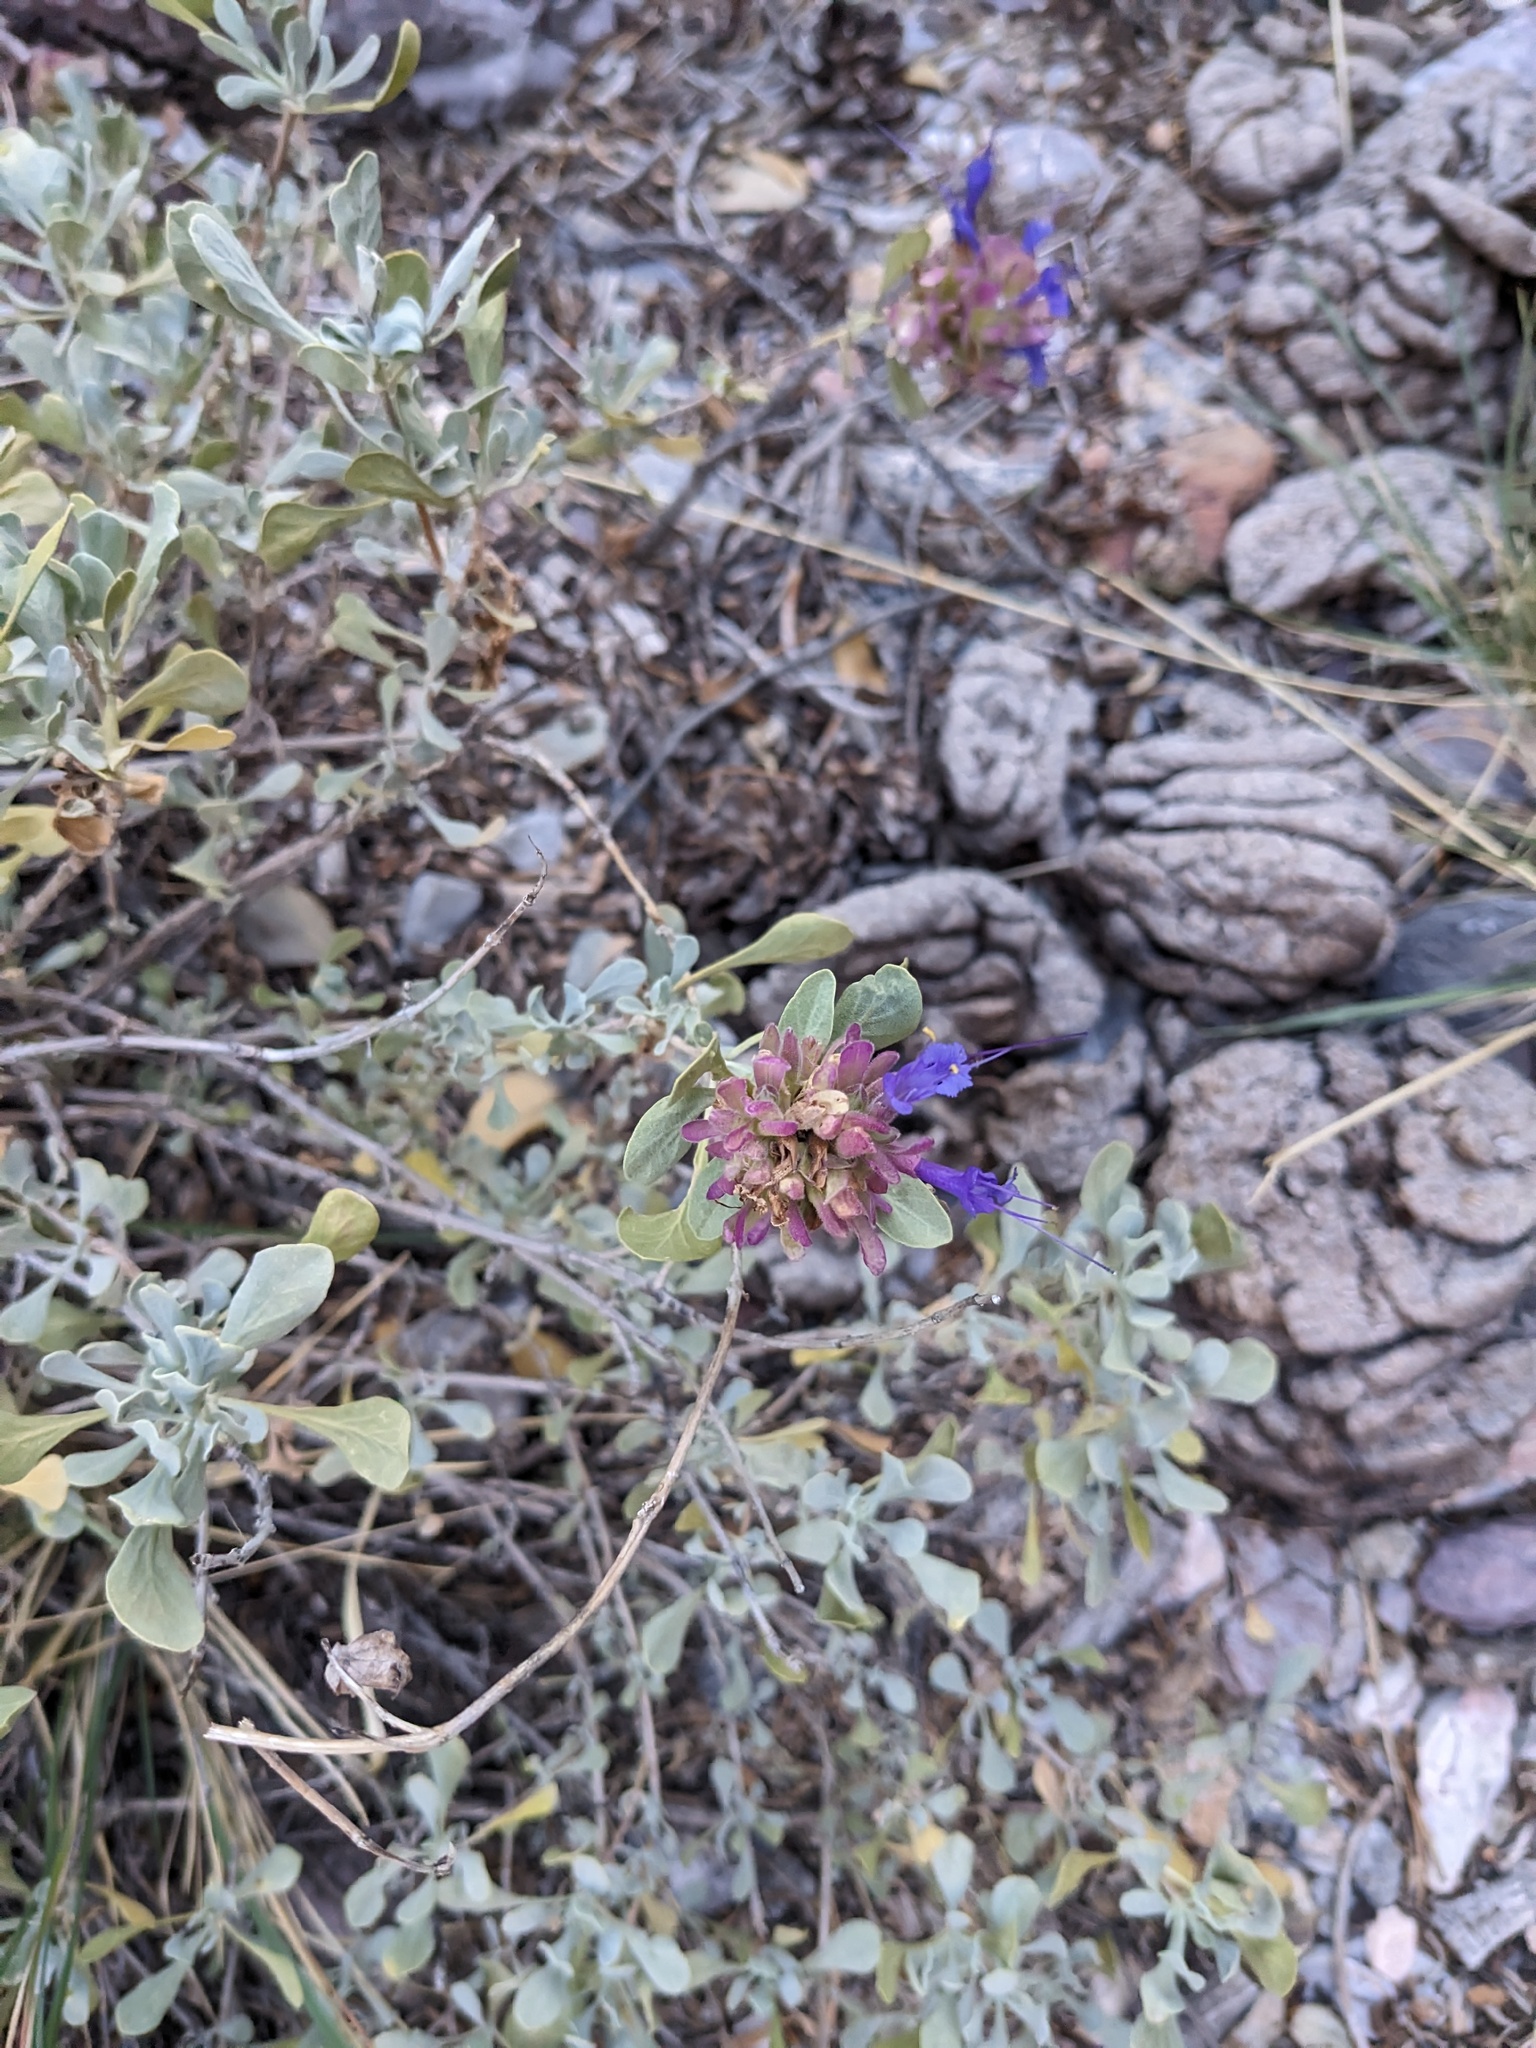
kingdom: Plantae
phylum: Tracheophyta
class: Magnoliopsida
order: Lamiales
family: Lamiaceae
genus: Salvia
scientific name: Salvia dorrii
